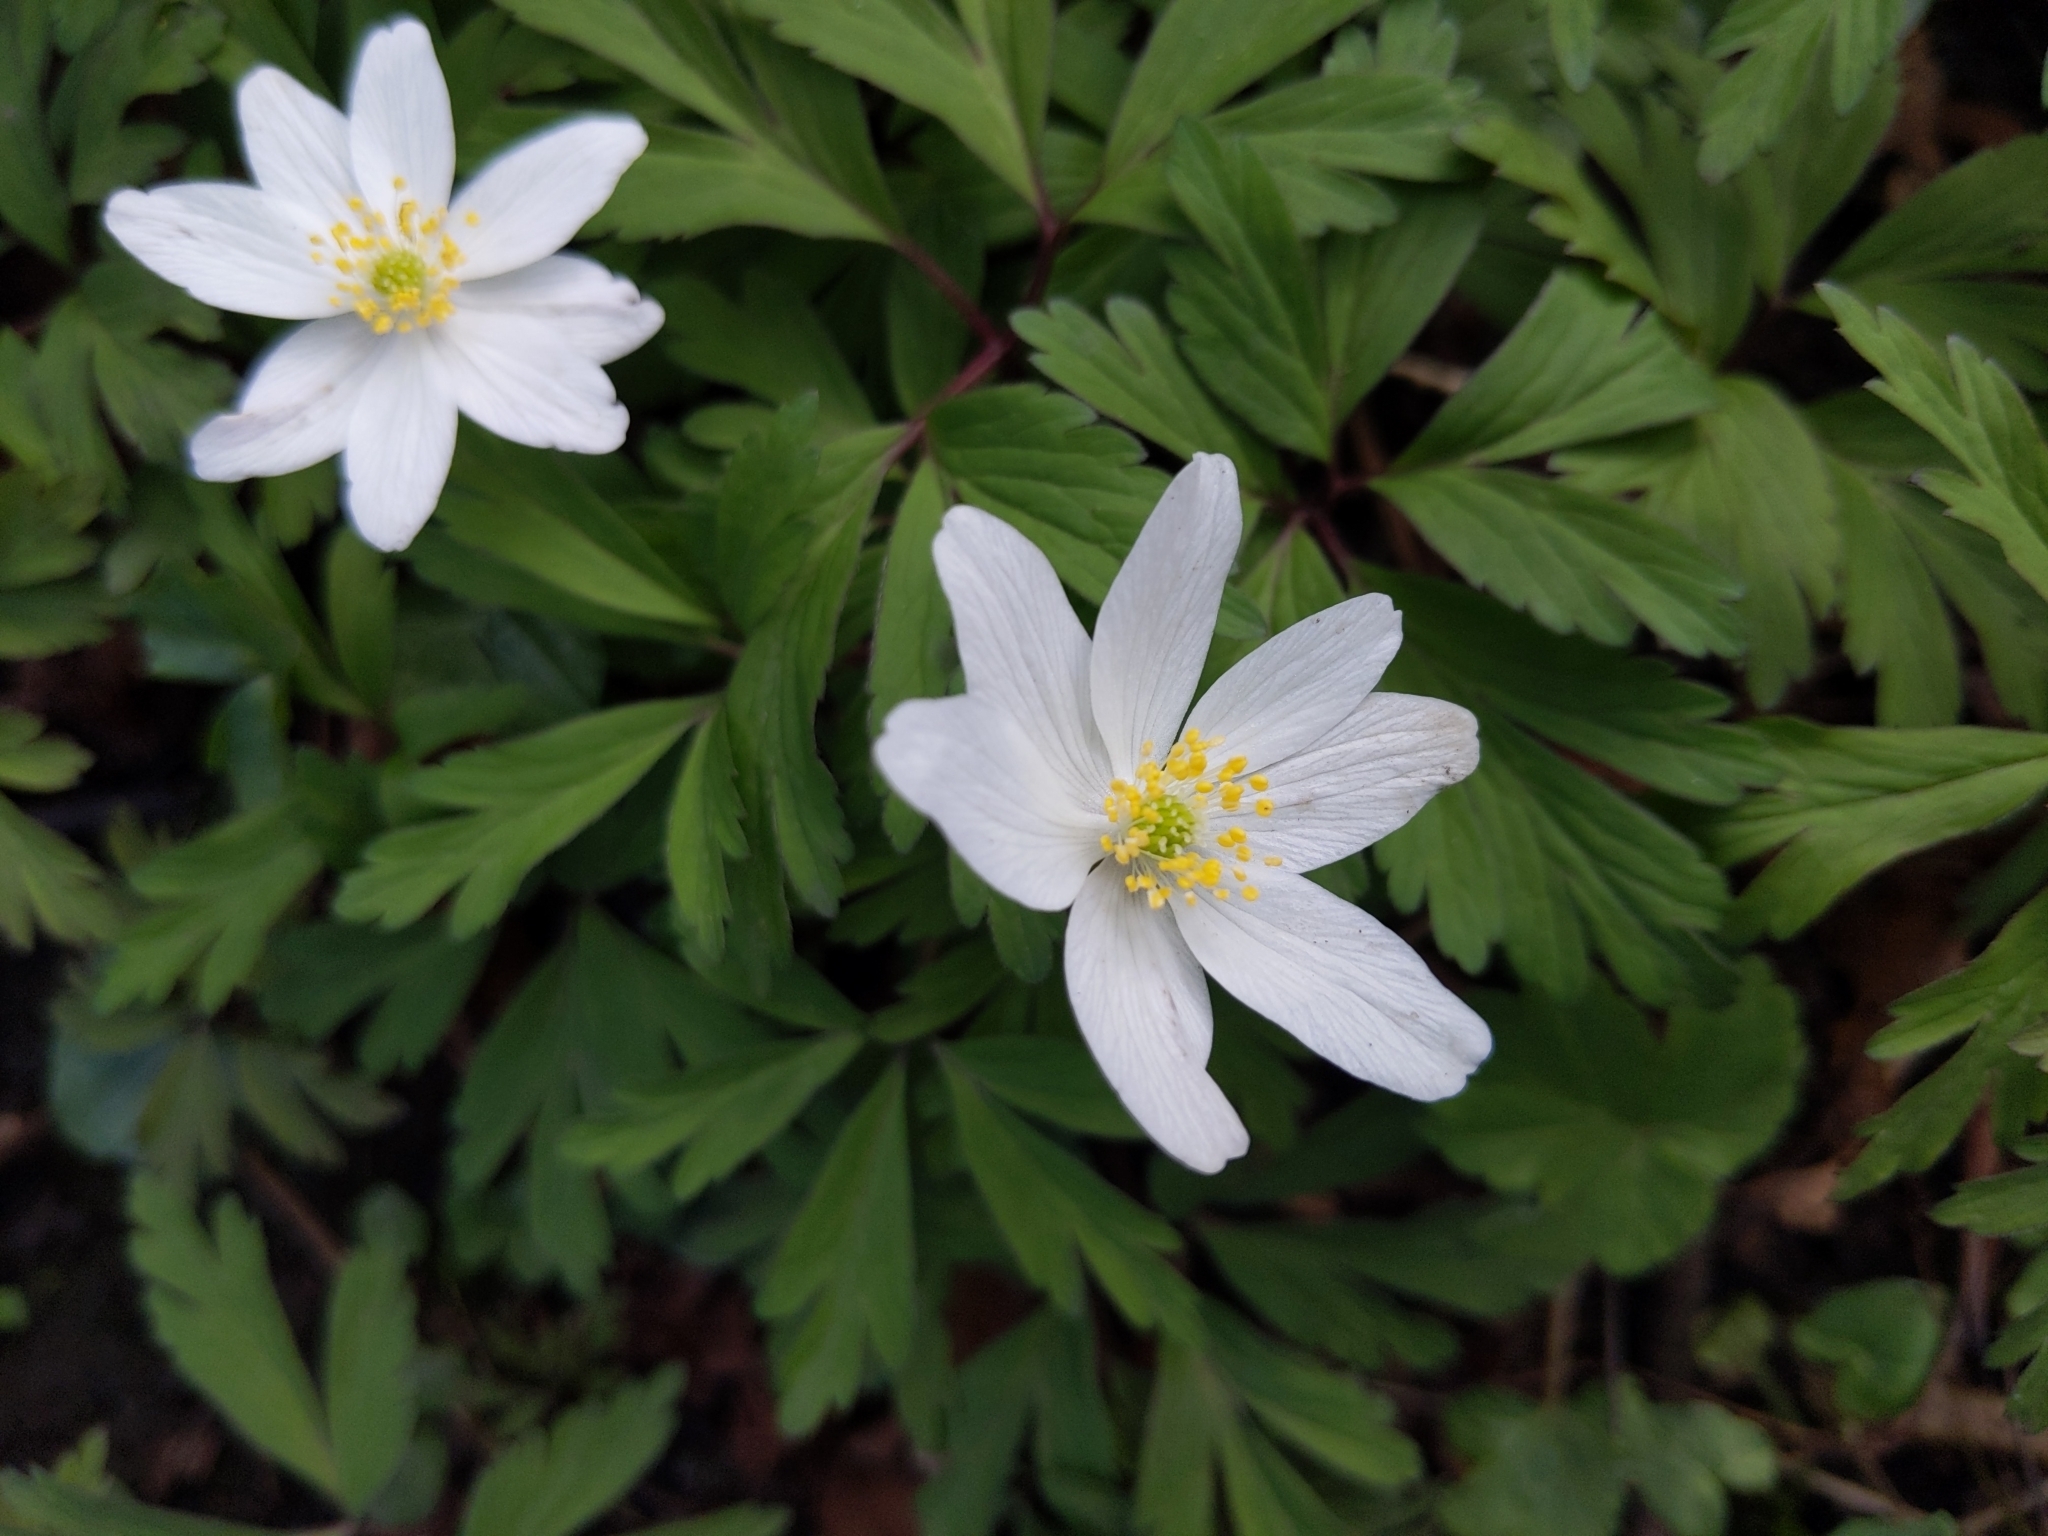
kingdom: Plantae
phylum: Tracheophyta
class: Magnoliopsida
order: Ranunculales
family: Ranunculaceae
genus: Anemone
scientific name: Anemone nemorosa
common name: Wood anemone
